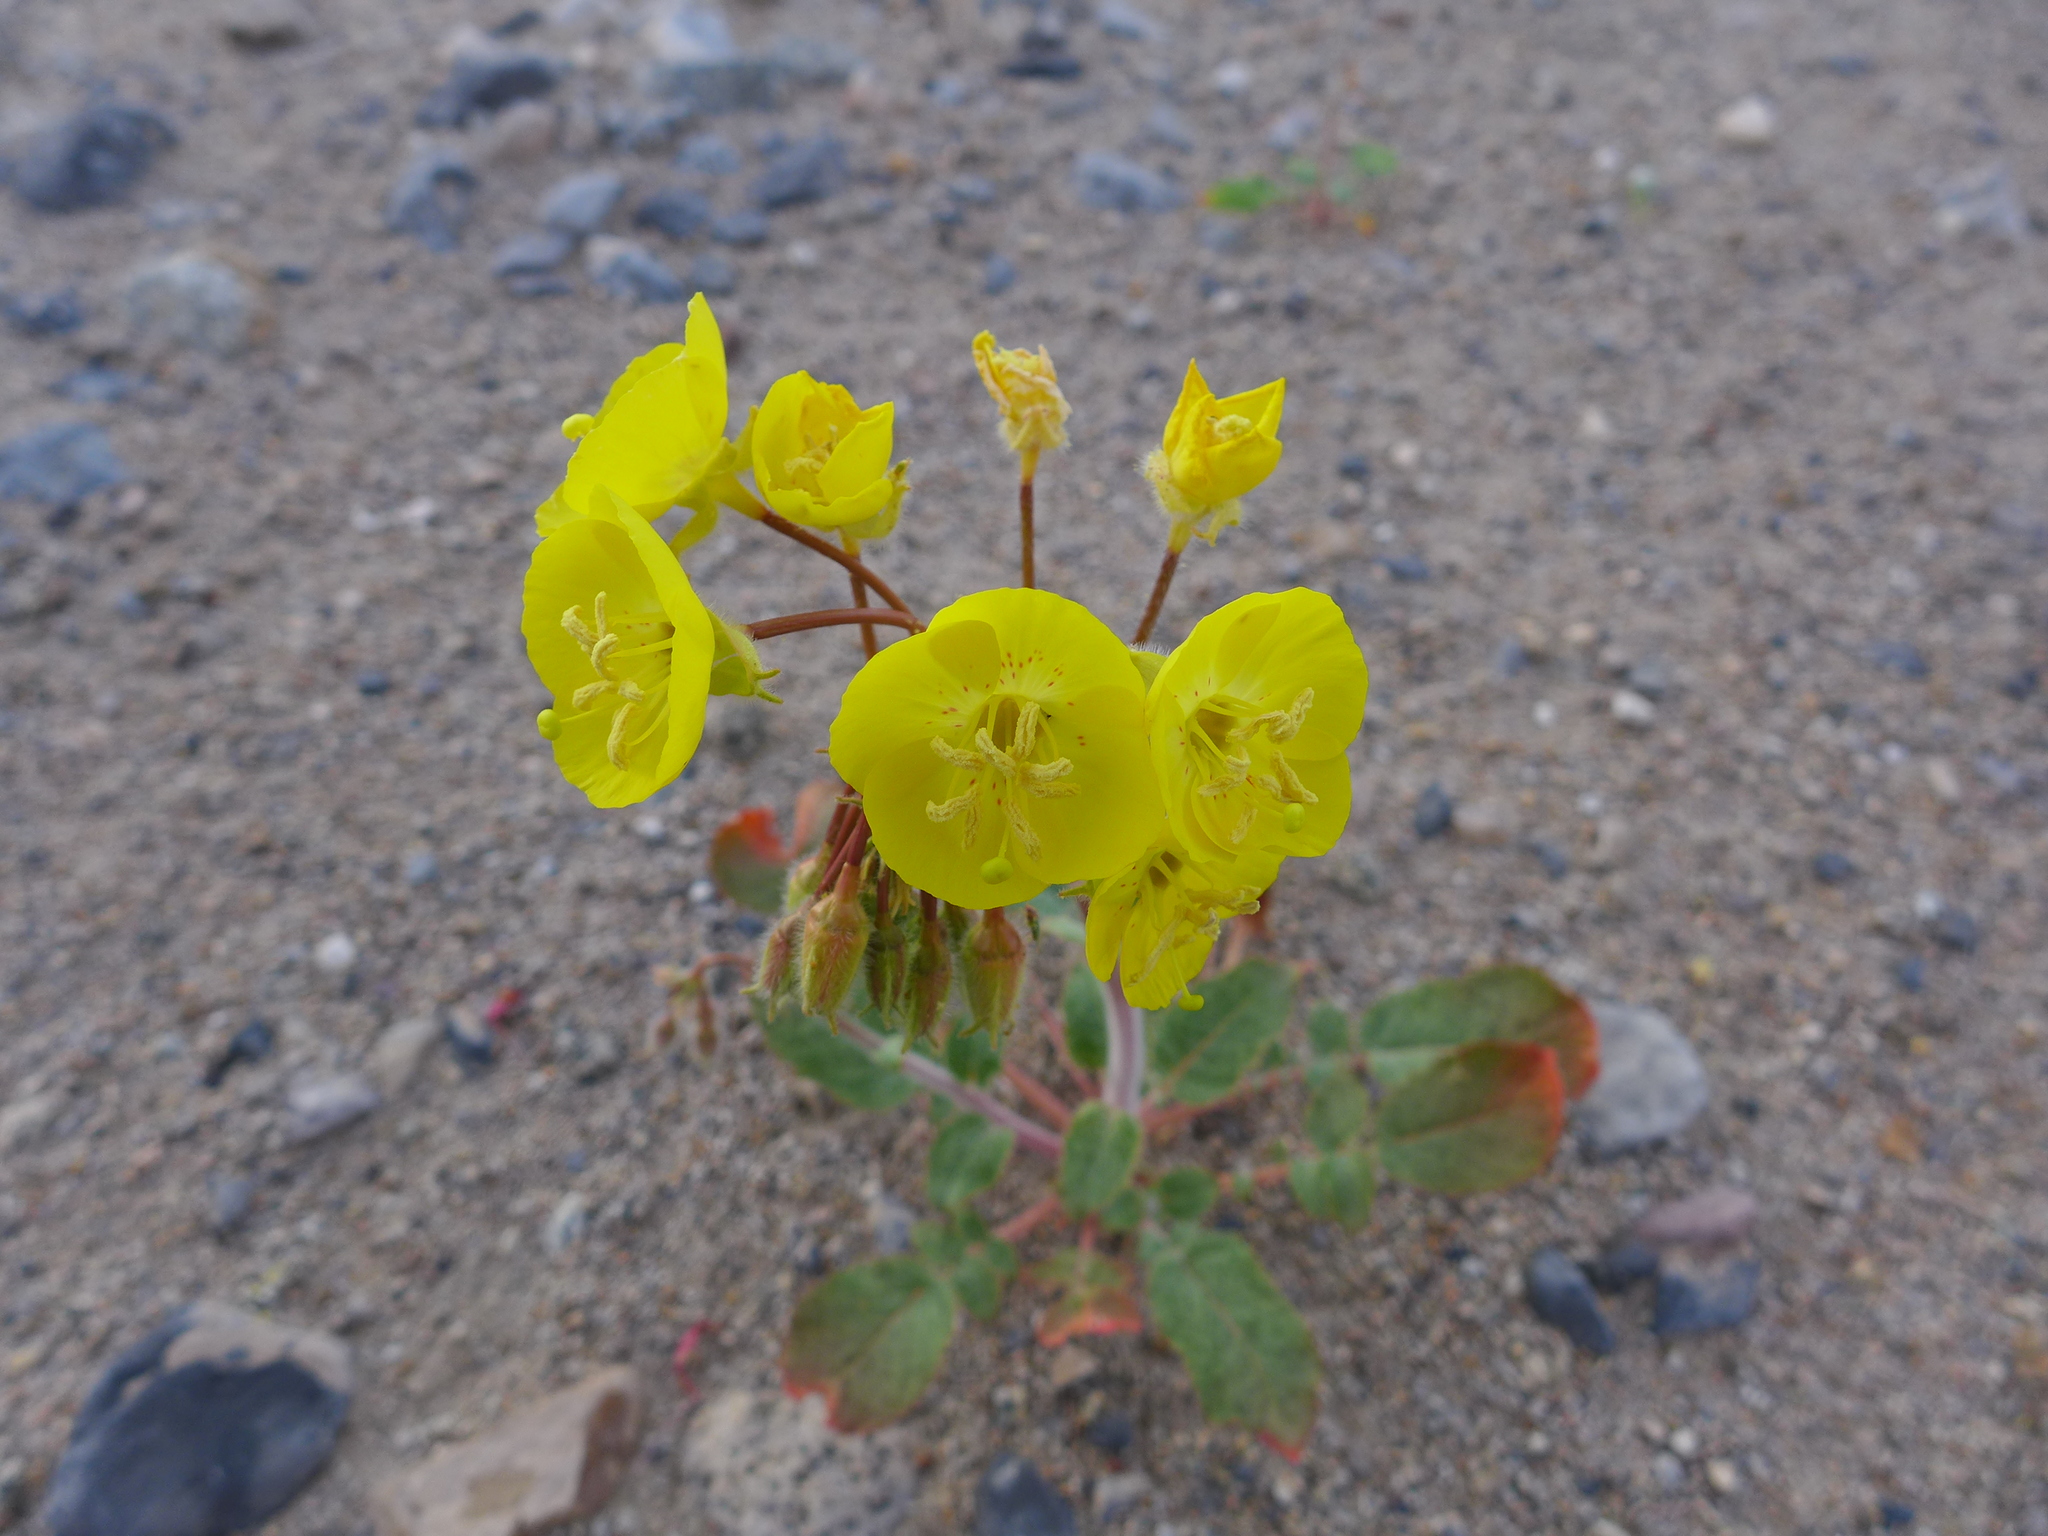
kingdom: Plantae
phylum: Tracheophyta
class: Magnoliopsida
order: Myrtales
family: Onagraceae
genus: Chylismia
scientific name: Chylismia brevipes
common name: Yellow cups
